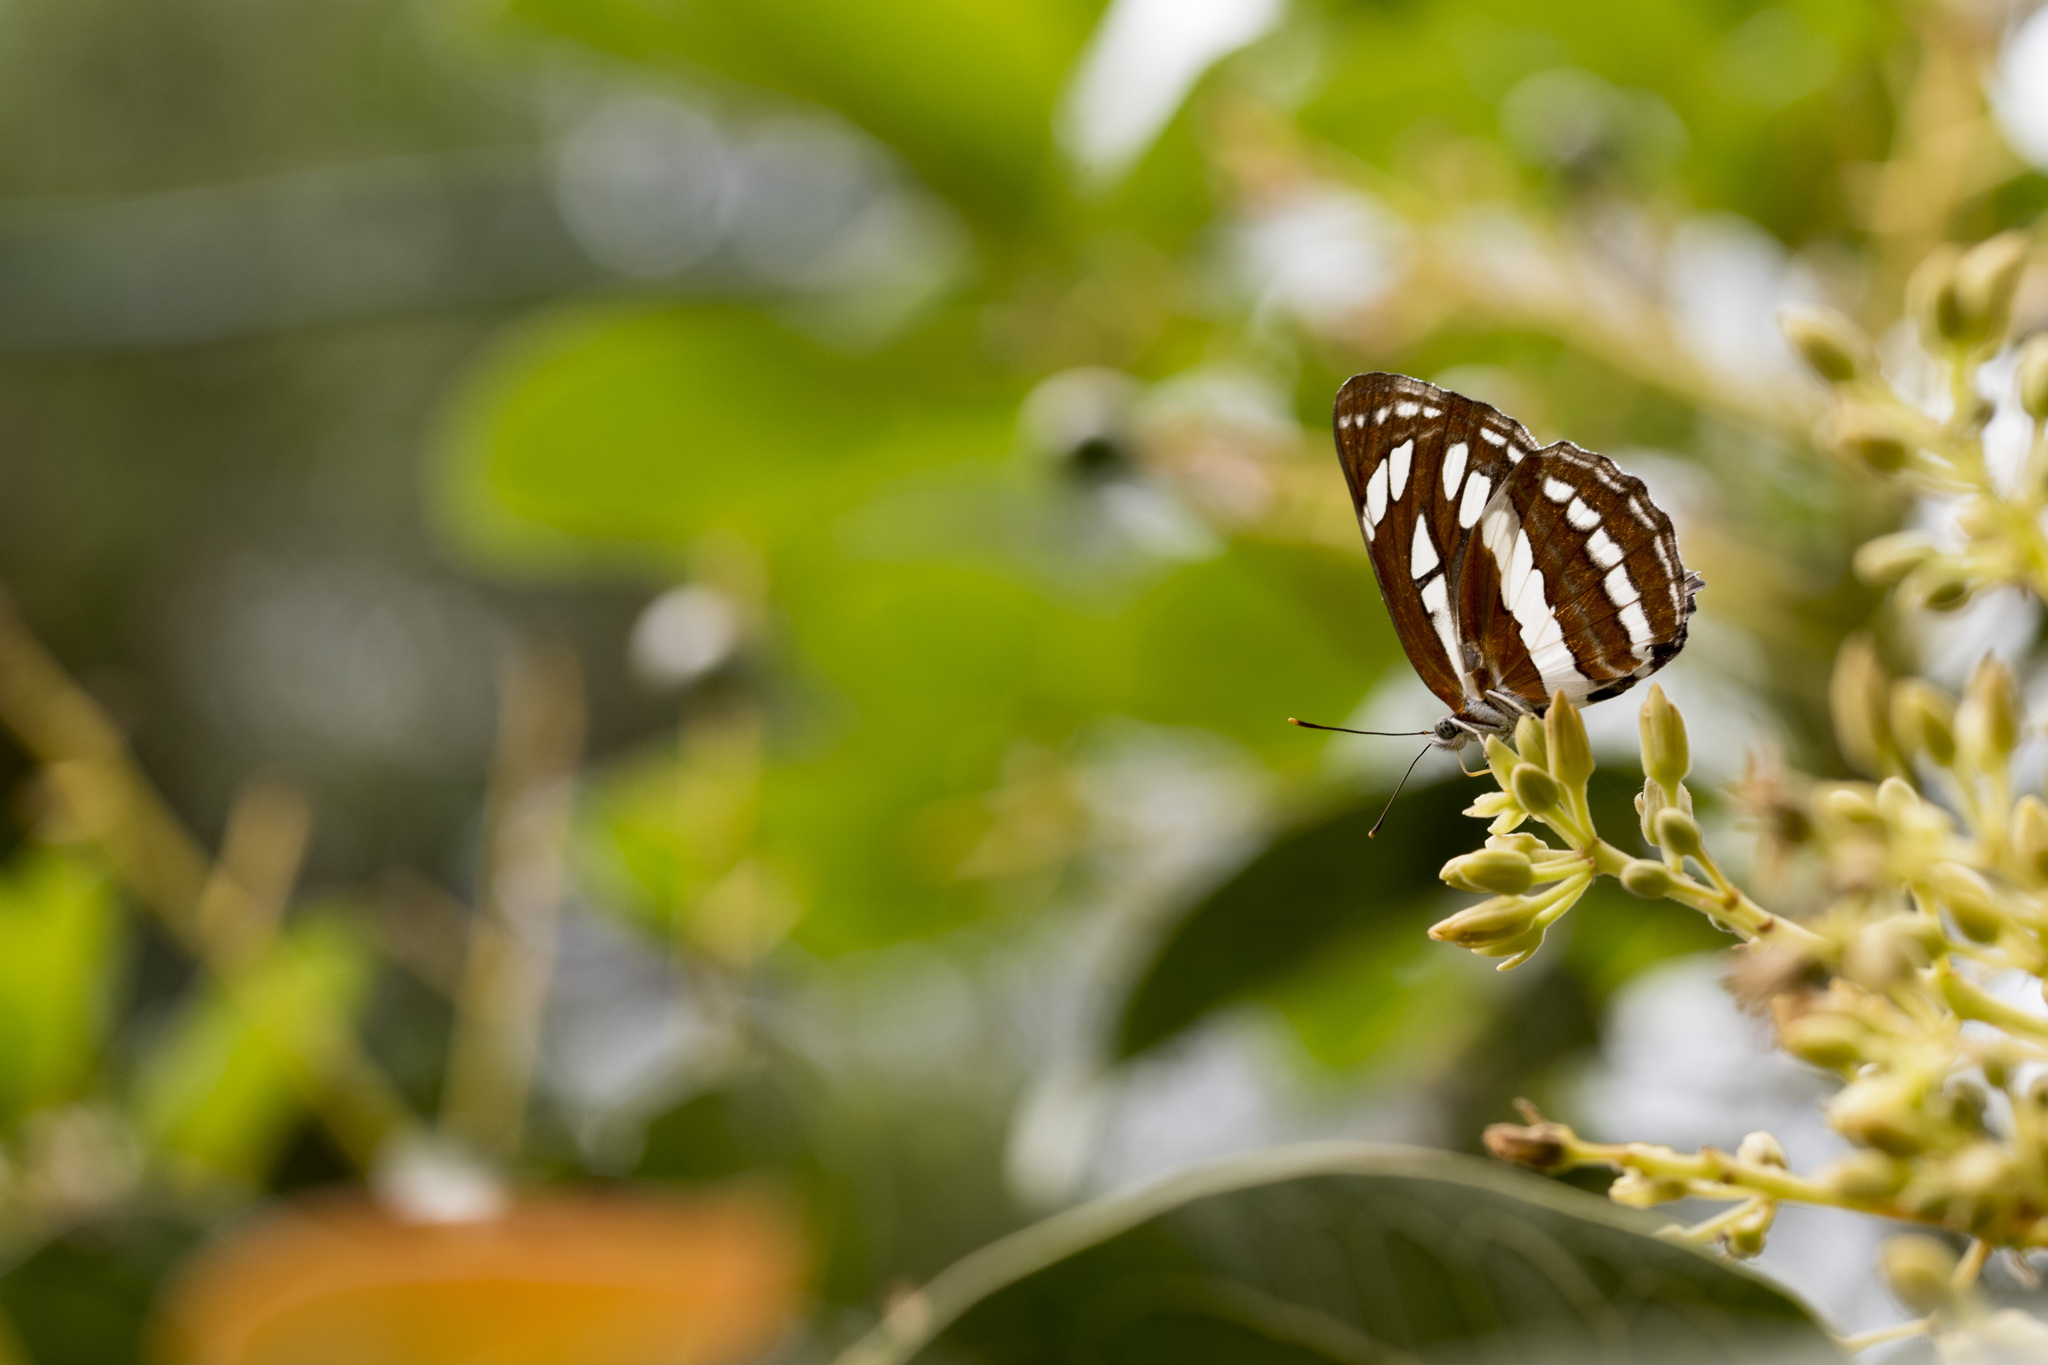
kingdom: Animalia
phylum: Arthropoda
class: Insecta
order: Lepidoptera
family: Nymphalidae
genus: Neptis
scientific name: Neptis hylas
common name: Common sailer
